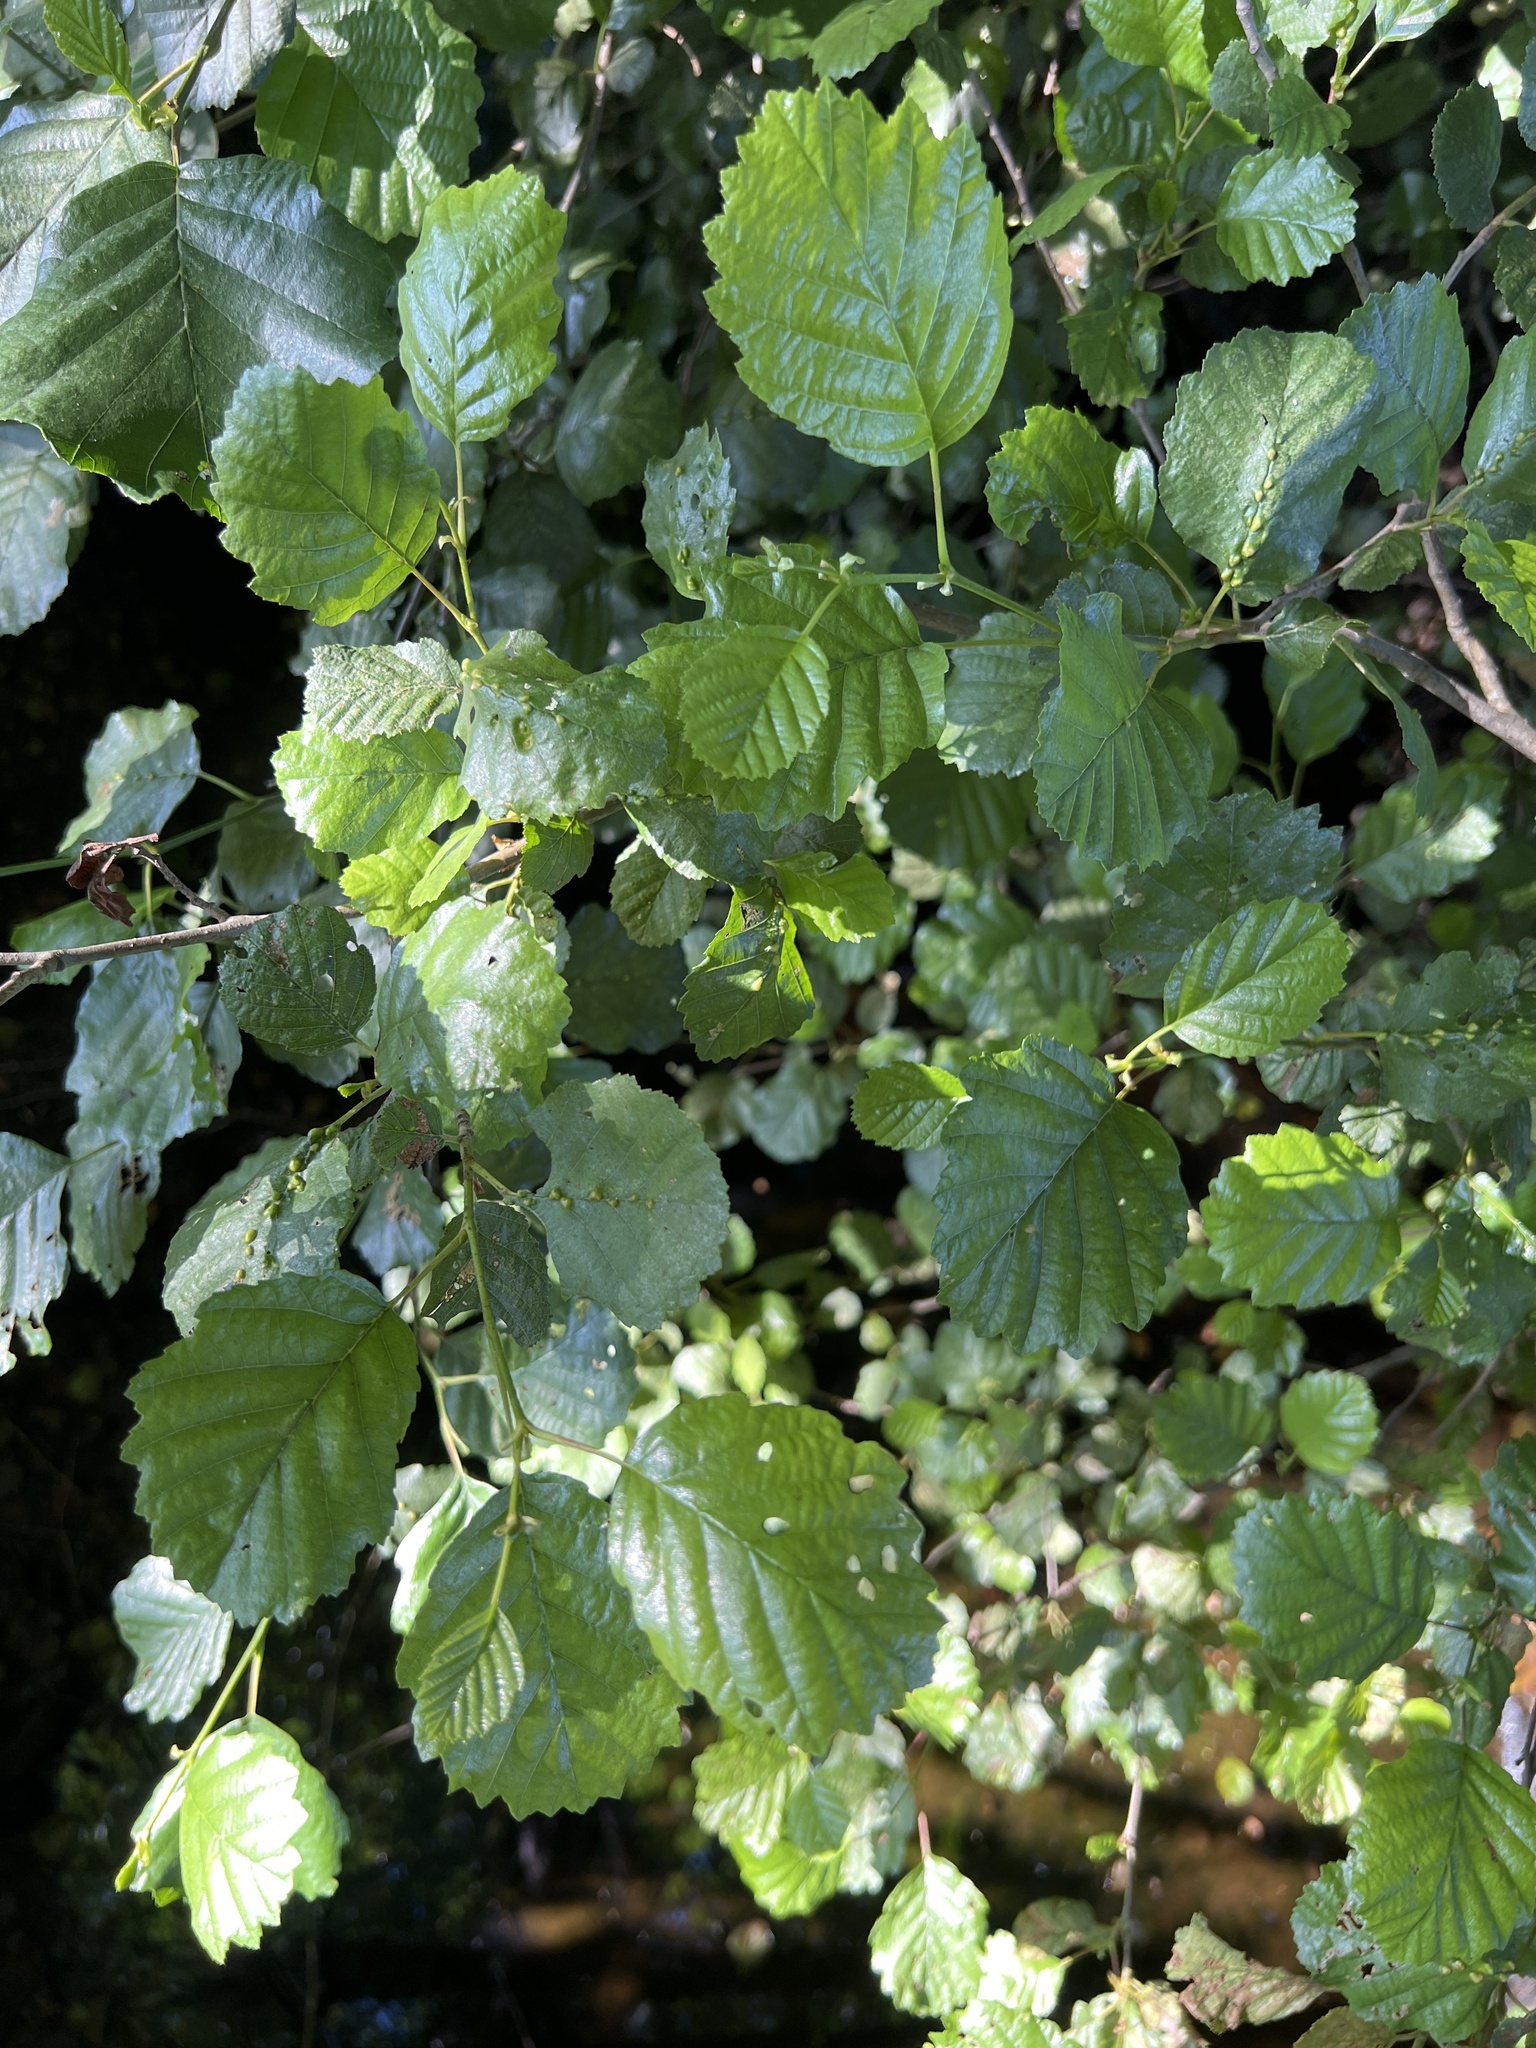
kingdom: Plantae
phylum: Tracheophyta
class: Magnoliopsida
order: Fagales
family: Betulaceae
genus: Alnus
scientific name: Alnus lusitanica
